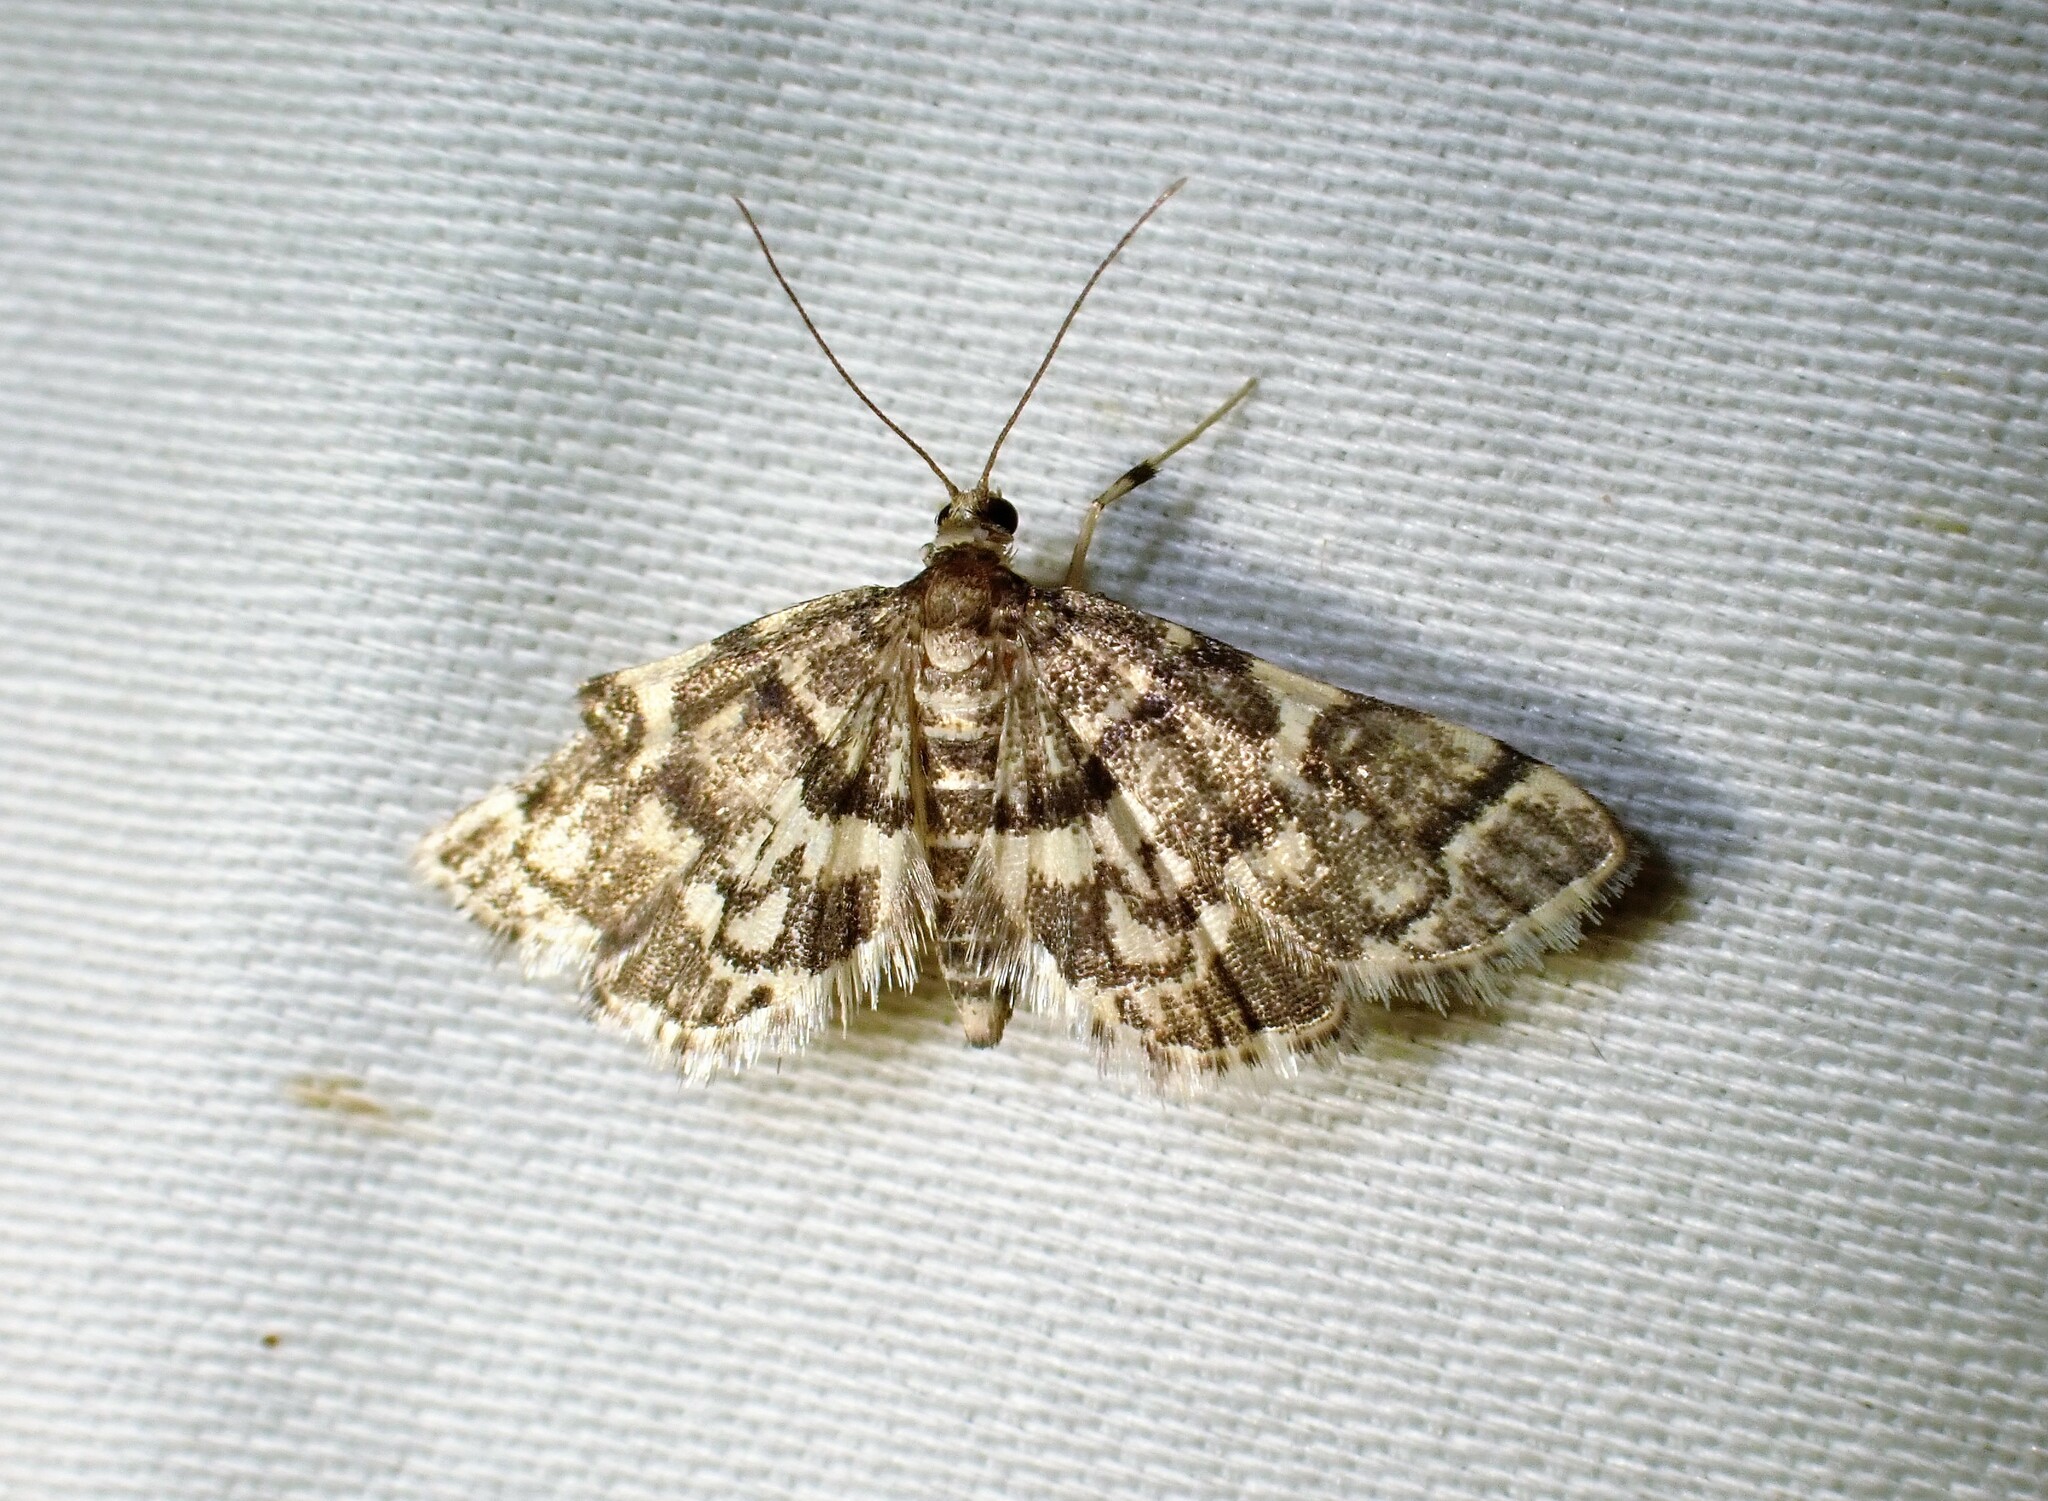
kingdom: Animalia
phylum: Arthropoda
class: Insecta
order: Lepidoptera
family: Crambidae
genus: Anageshna
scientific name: Anageshna primordialis
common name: Yellow-spotted webworm moth
